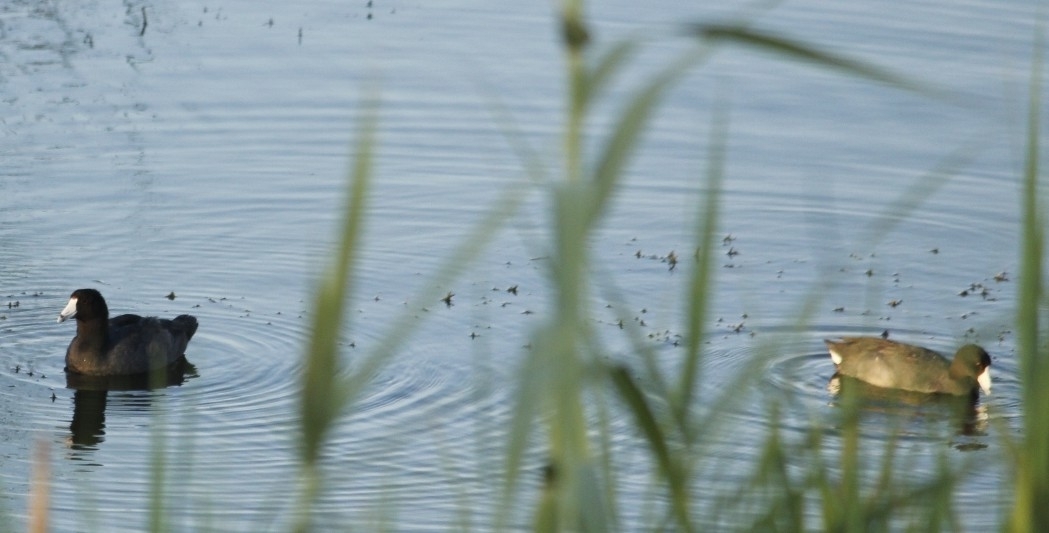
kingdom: Animalia
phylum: Chordata
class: Aves
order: Gruiformes
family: Rallidae
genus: Fulica
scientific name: Fulica americana
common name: American coot
